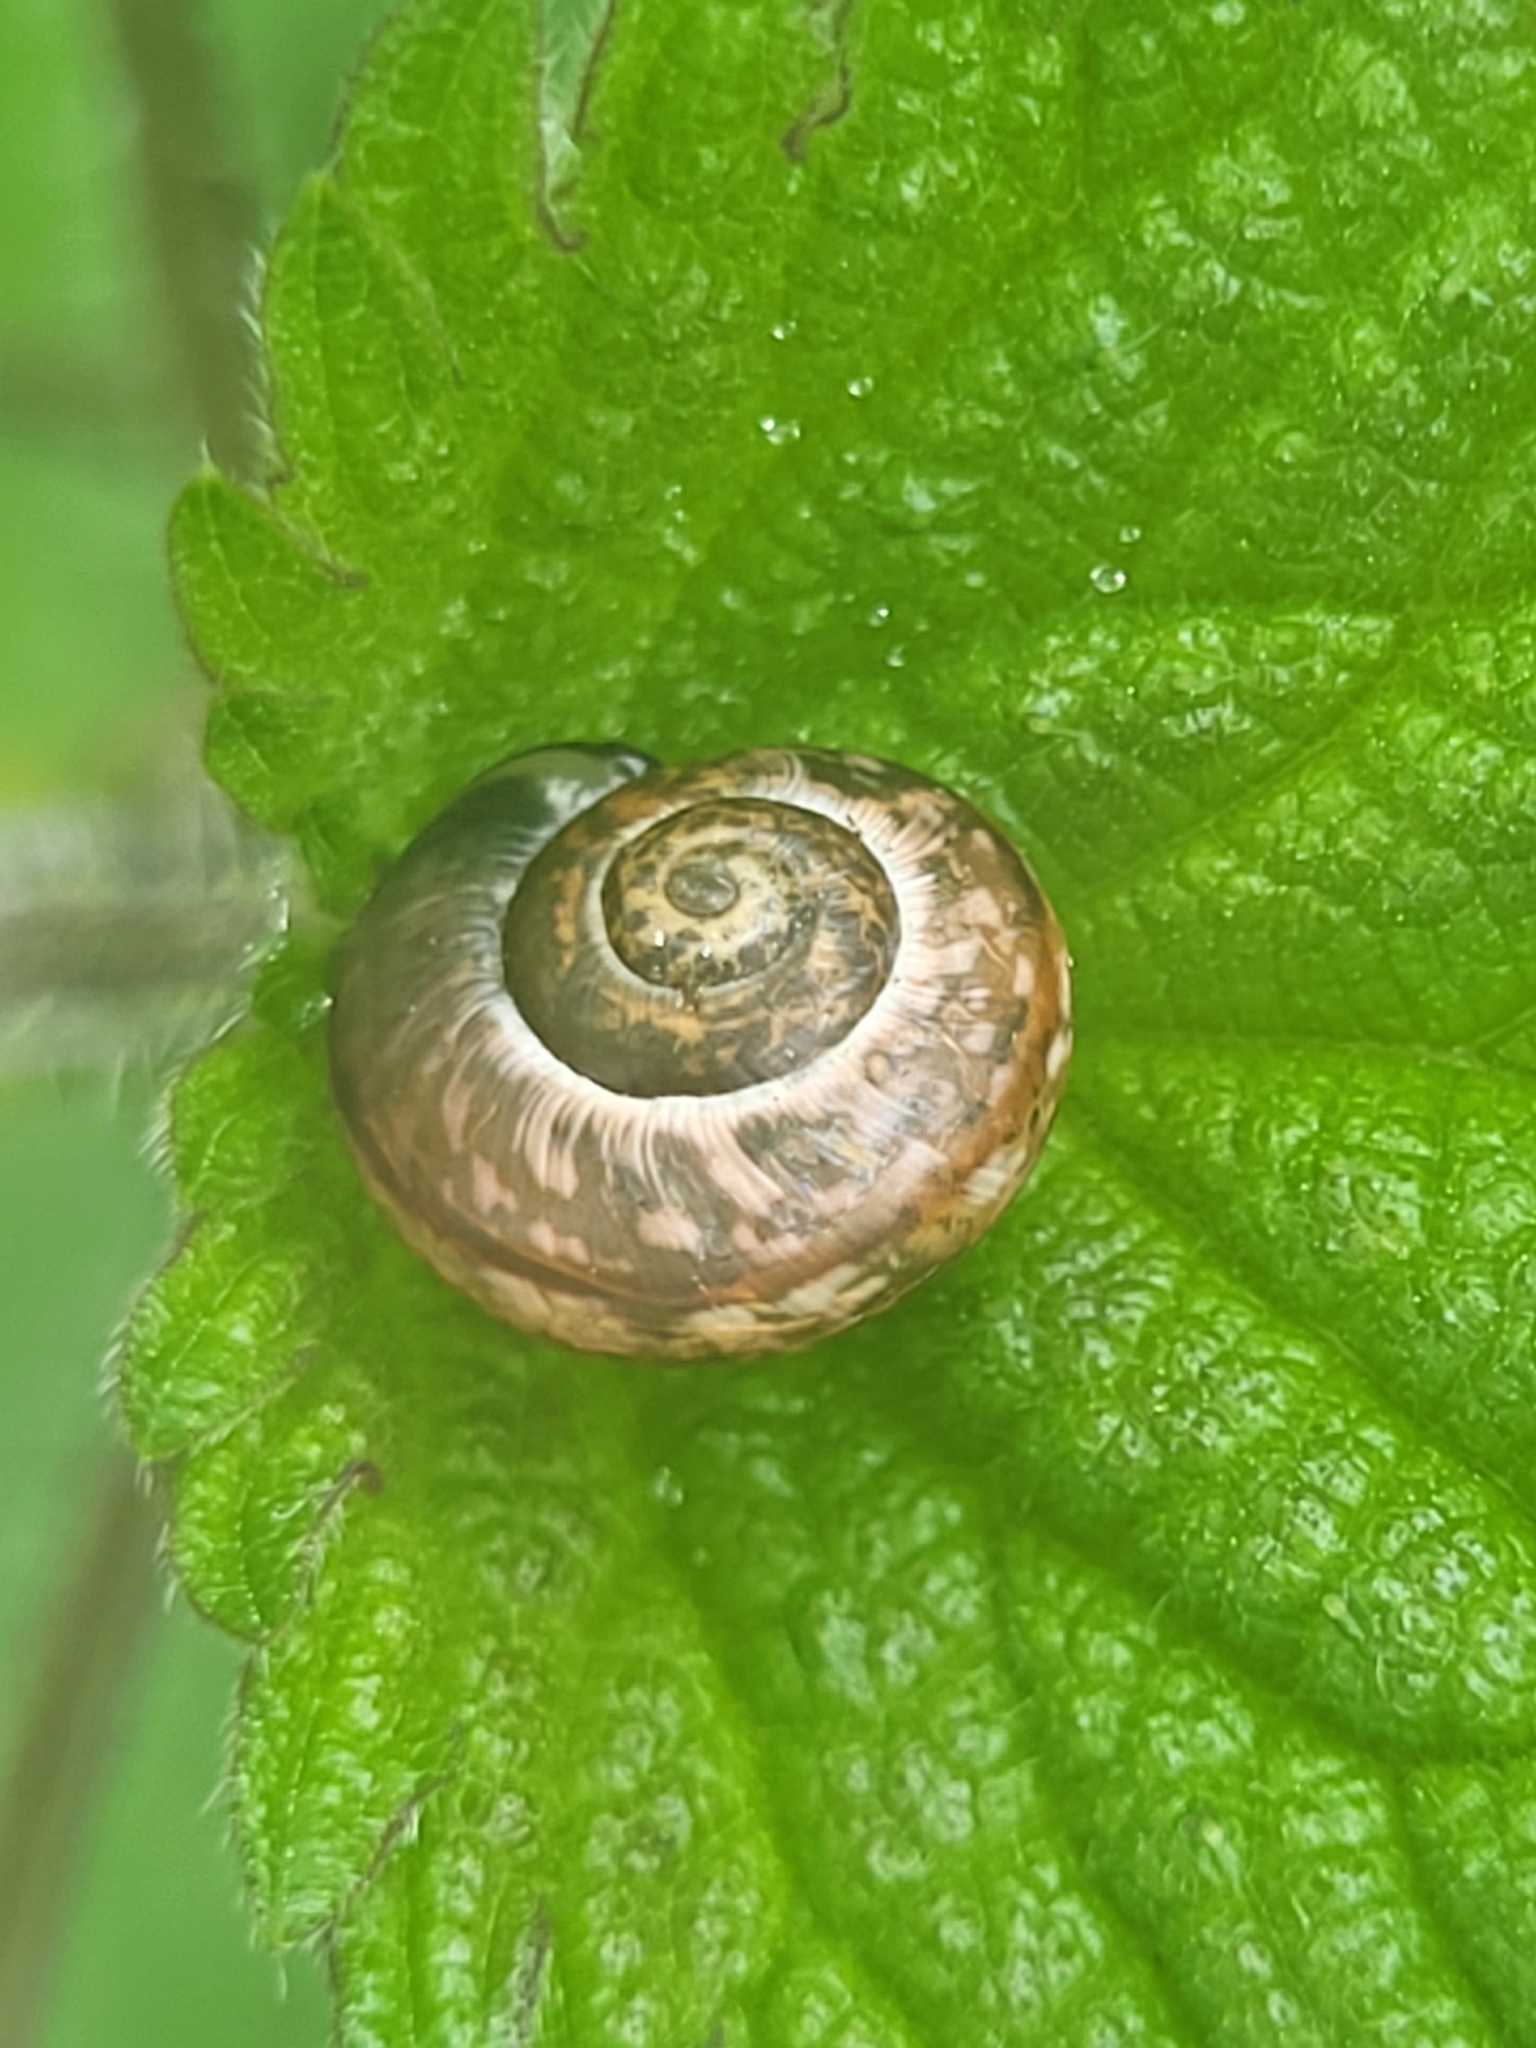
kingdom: Animalia
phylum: Mollusca
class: Gastropoda
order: Stylommatophora
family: Helicidae
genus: Arianta
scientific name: Arianta arbustorum
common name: Copse snail
